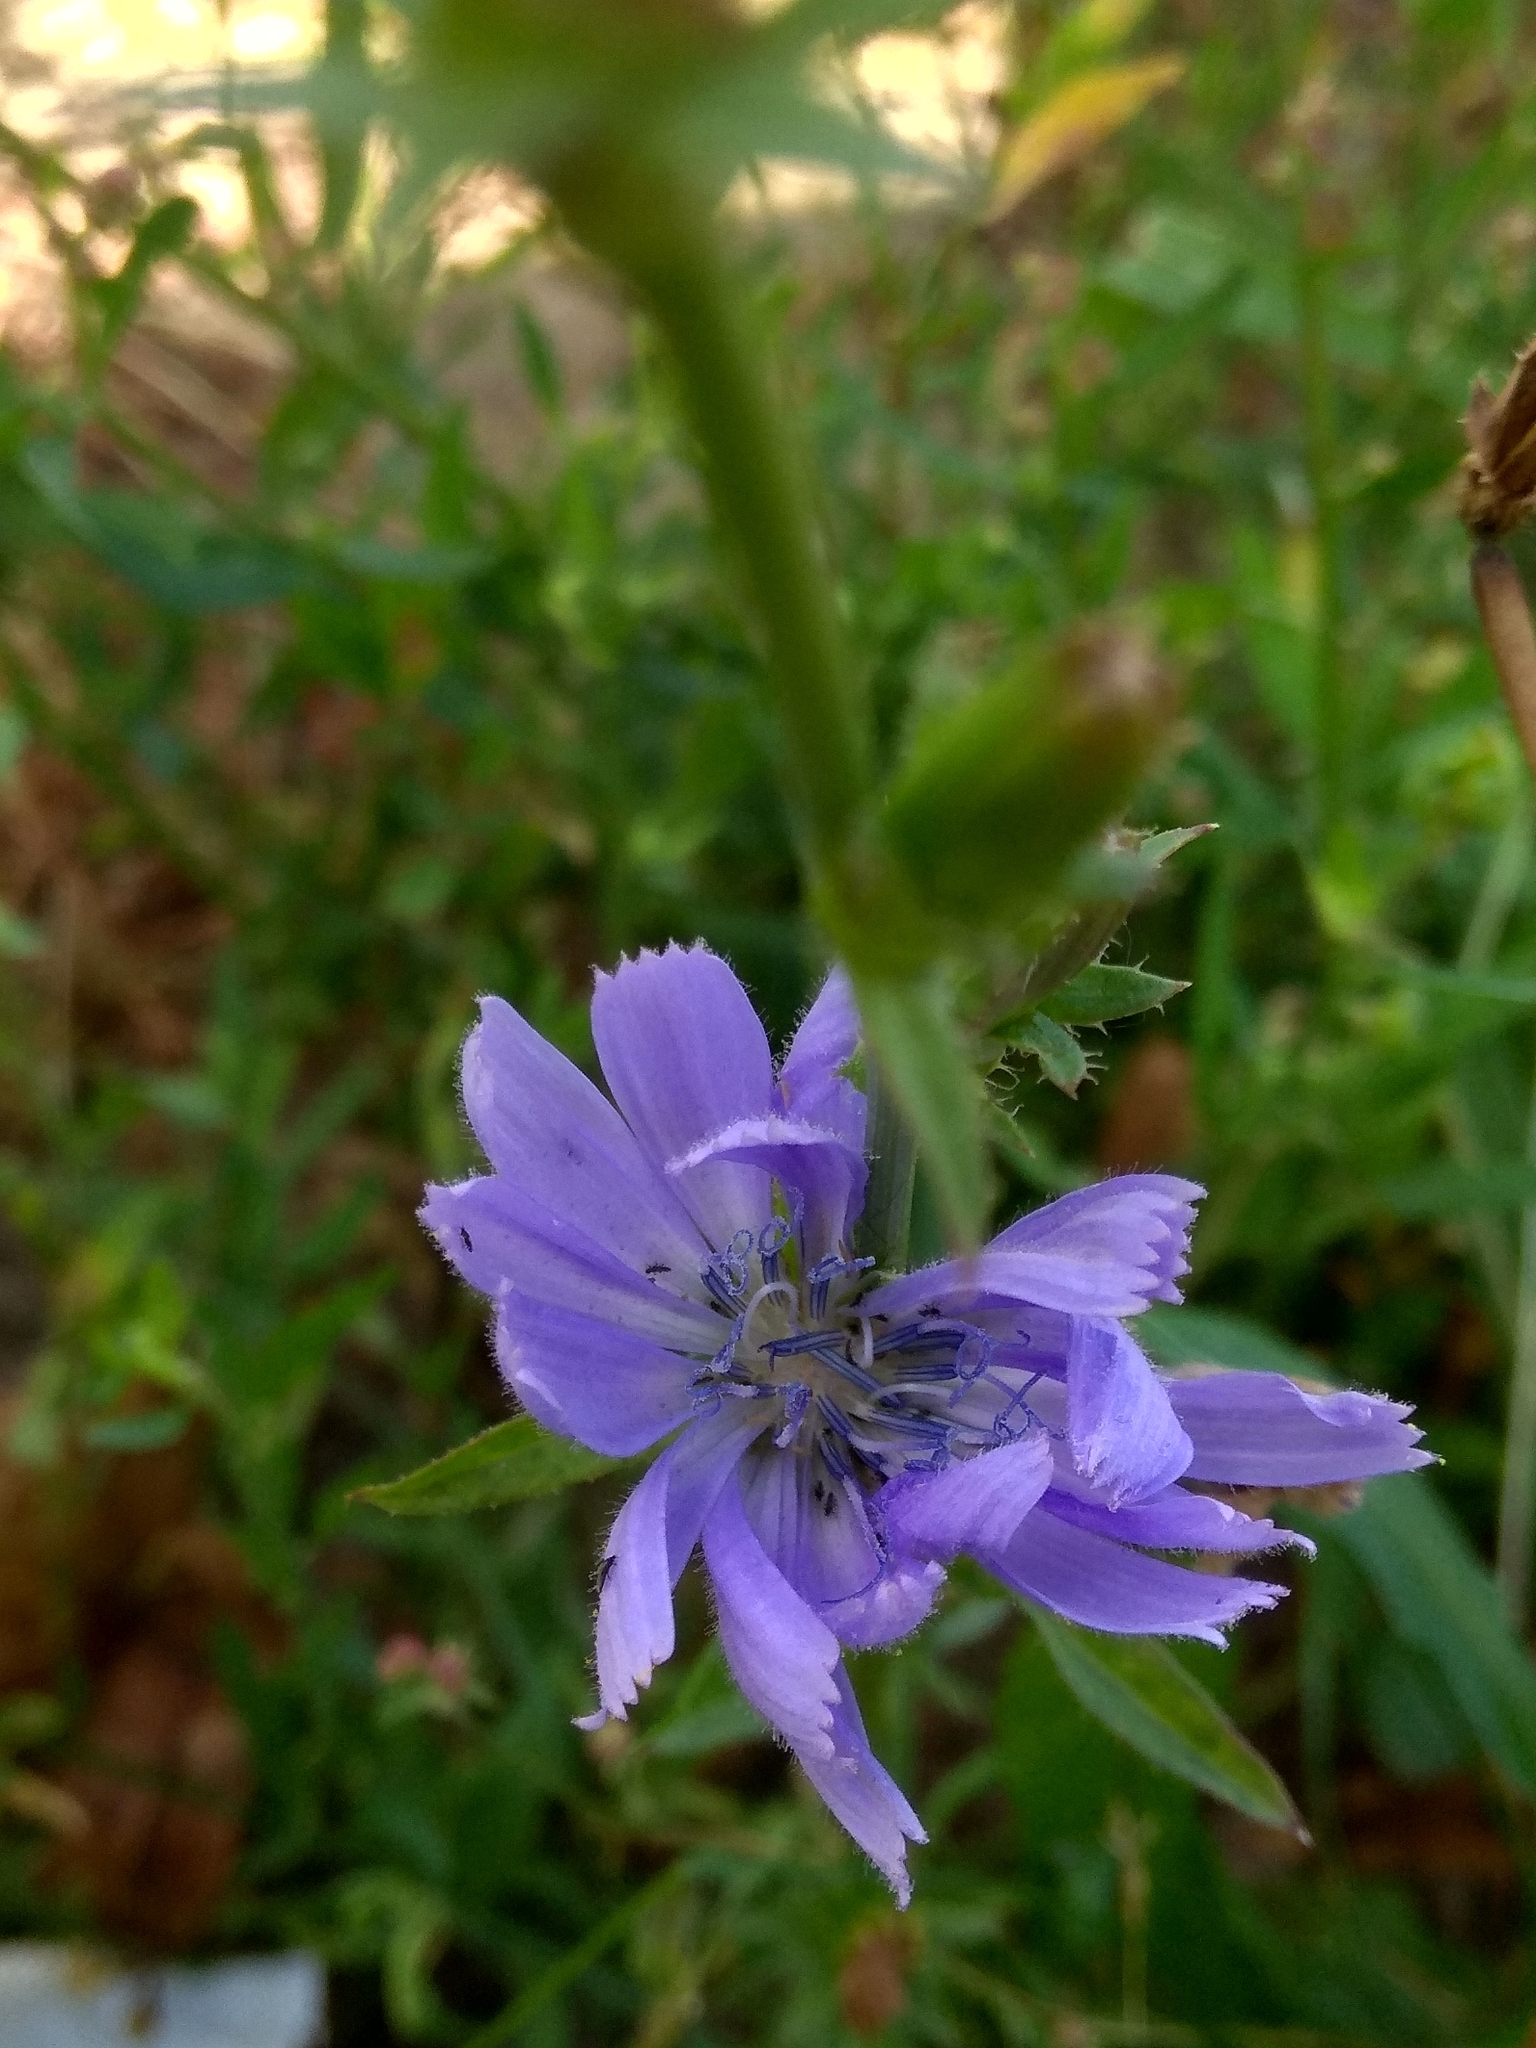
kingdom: Plantae
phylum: Tracheophyta
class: Magnoliopsida
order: Asterales
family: Asteraceae
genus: Cichorium
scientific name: Cichorium intybus
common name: Chicory
